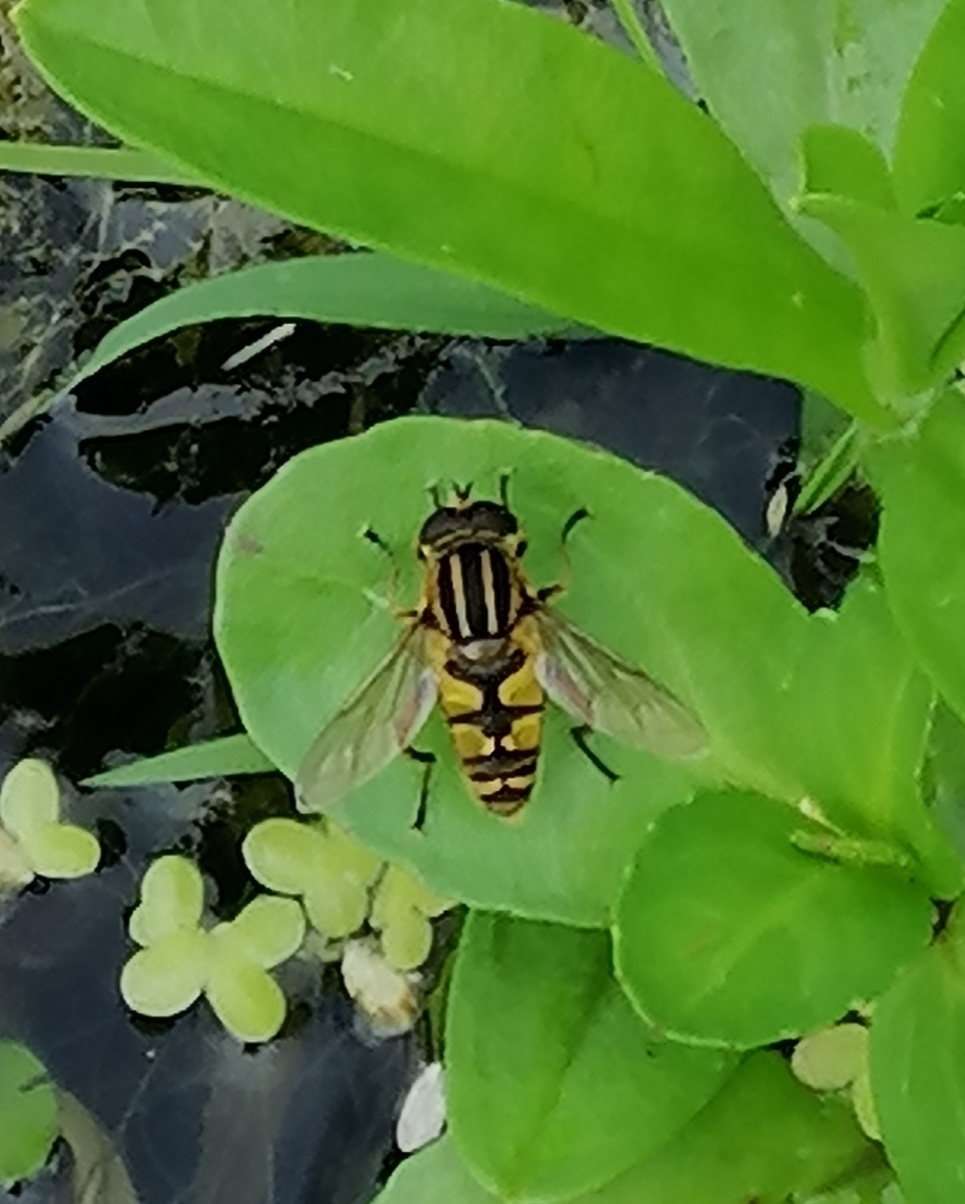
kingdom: Animalia
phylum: Arthropoda
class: Insecta
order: Diptera
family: Syrphidae
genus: Helophilus
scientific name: Helophilus pendulus
